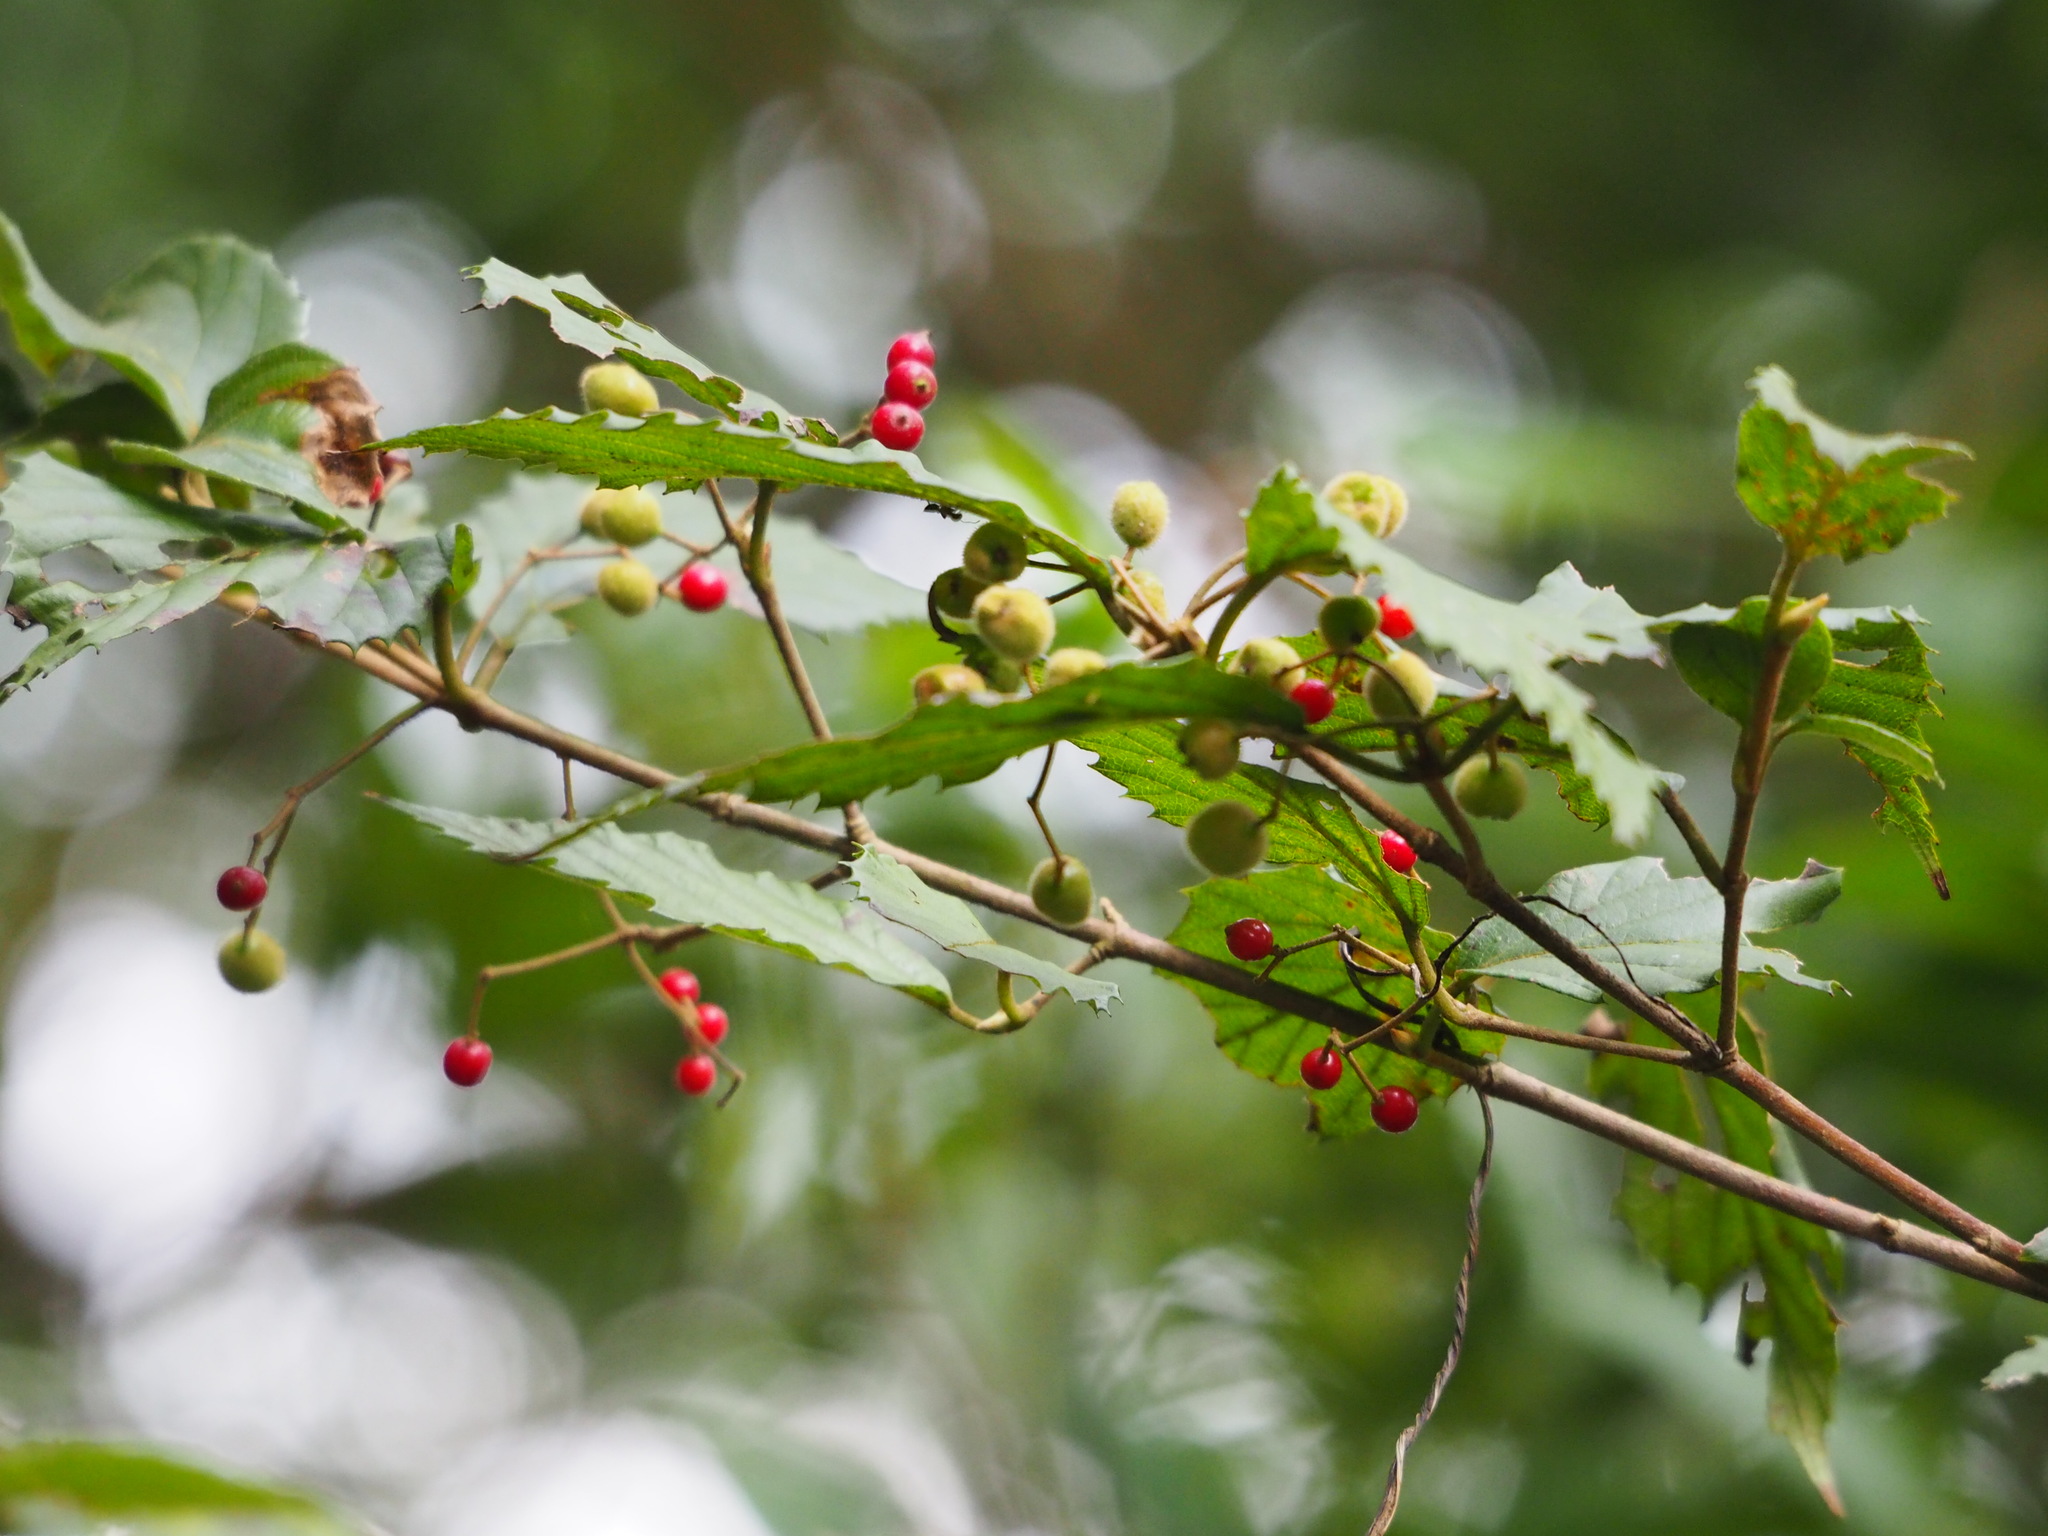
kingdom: Plantae
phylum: Tracheophyta
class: Magnoliopsida
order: Dipsacales
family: Viburnaceae
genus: Viburnum
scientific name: Viburnum luzonicum
